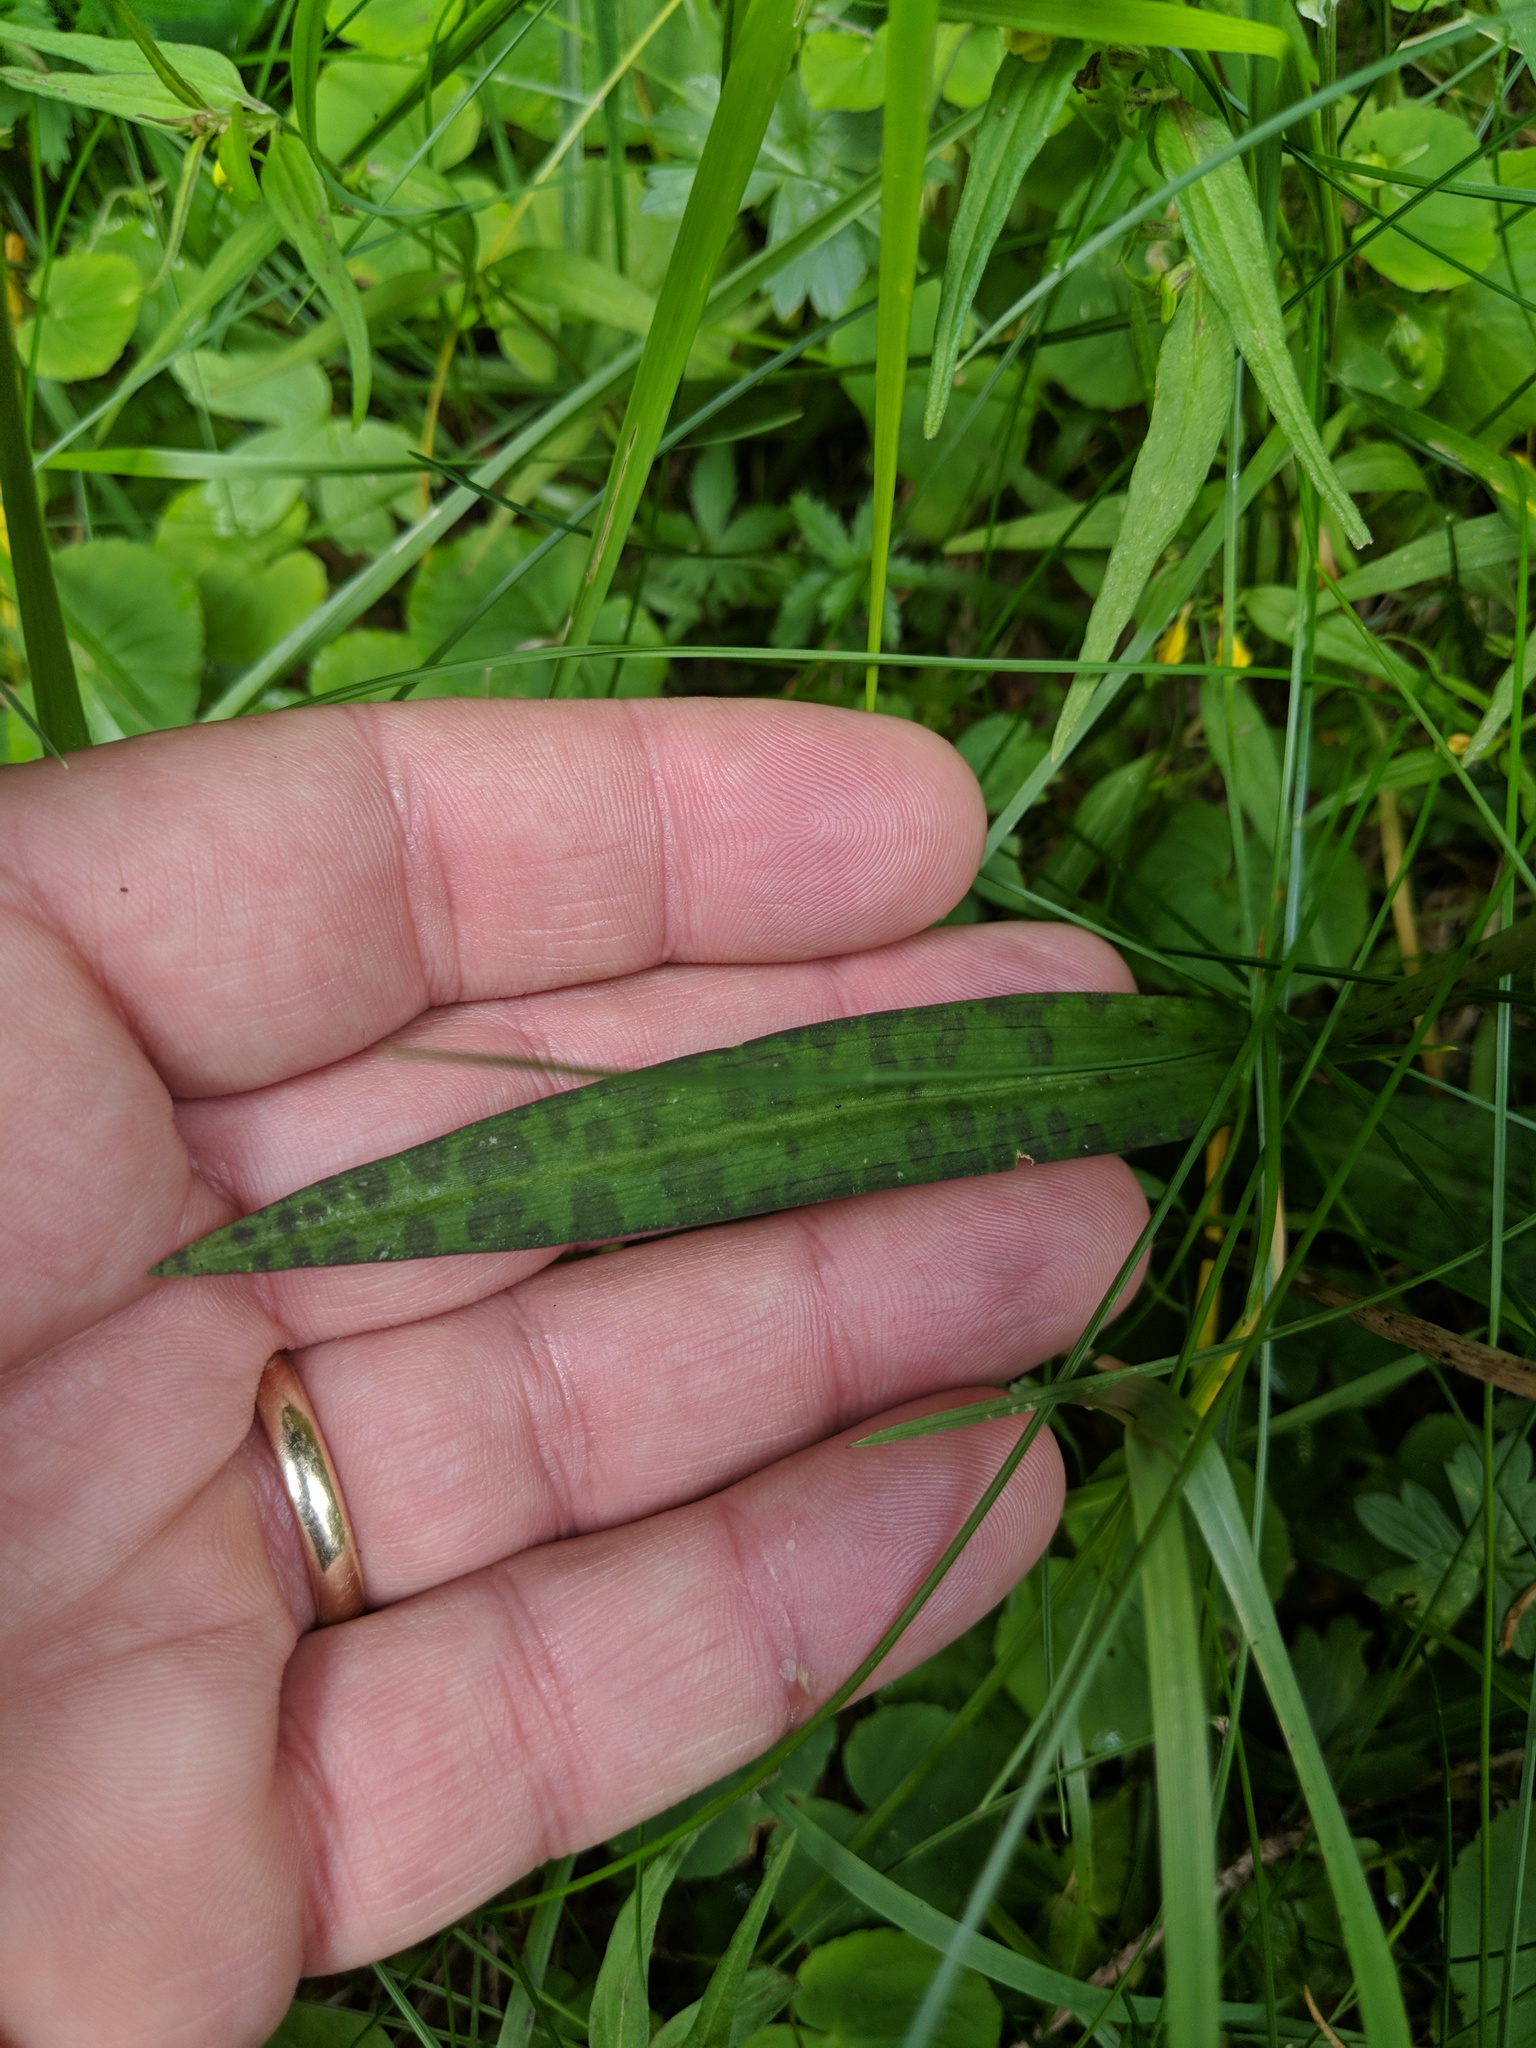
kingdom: Plantae
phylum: Tracheophyta
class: Liliopsida
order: Asparagales
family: Orchidaceae
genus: Dactylorhiza
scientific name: Dactylorhiza maculata
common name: Heath spotted-orchid
